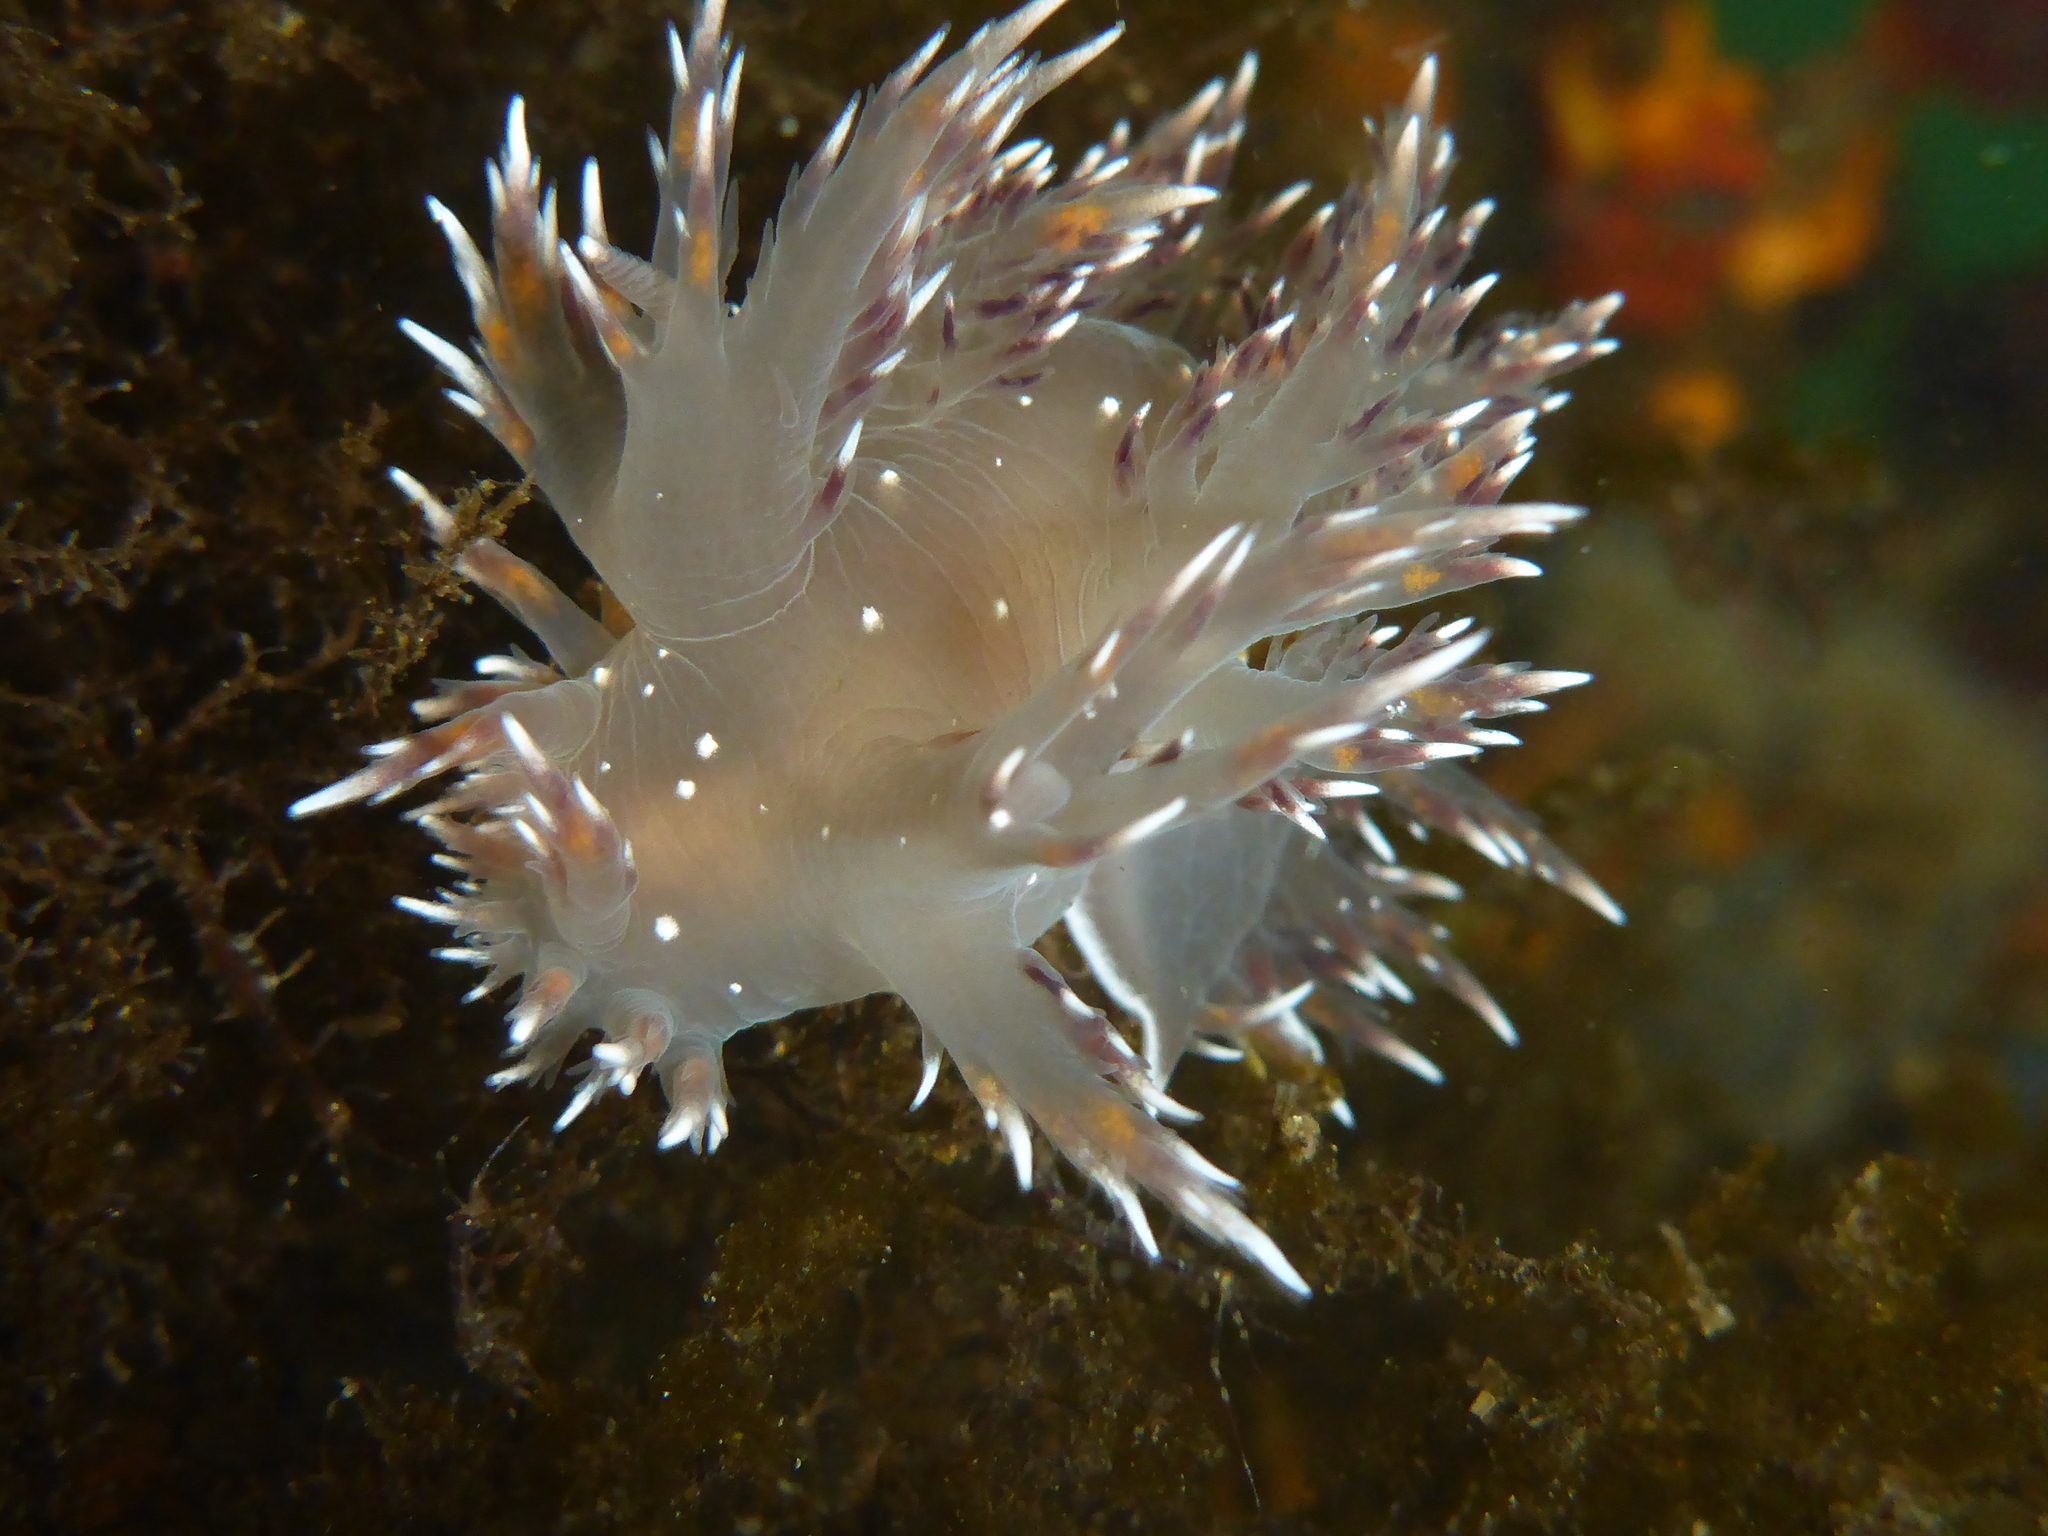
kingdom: Animalia
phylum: Mollusca
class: Gastropoda
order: Nudibranchia
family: Dendronotidae
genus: Dendronotus
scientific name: Dendronotus iris
